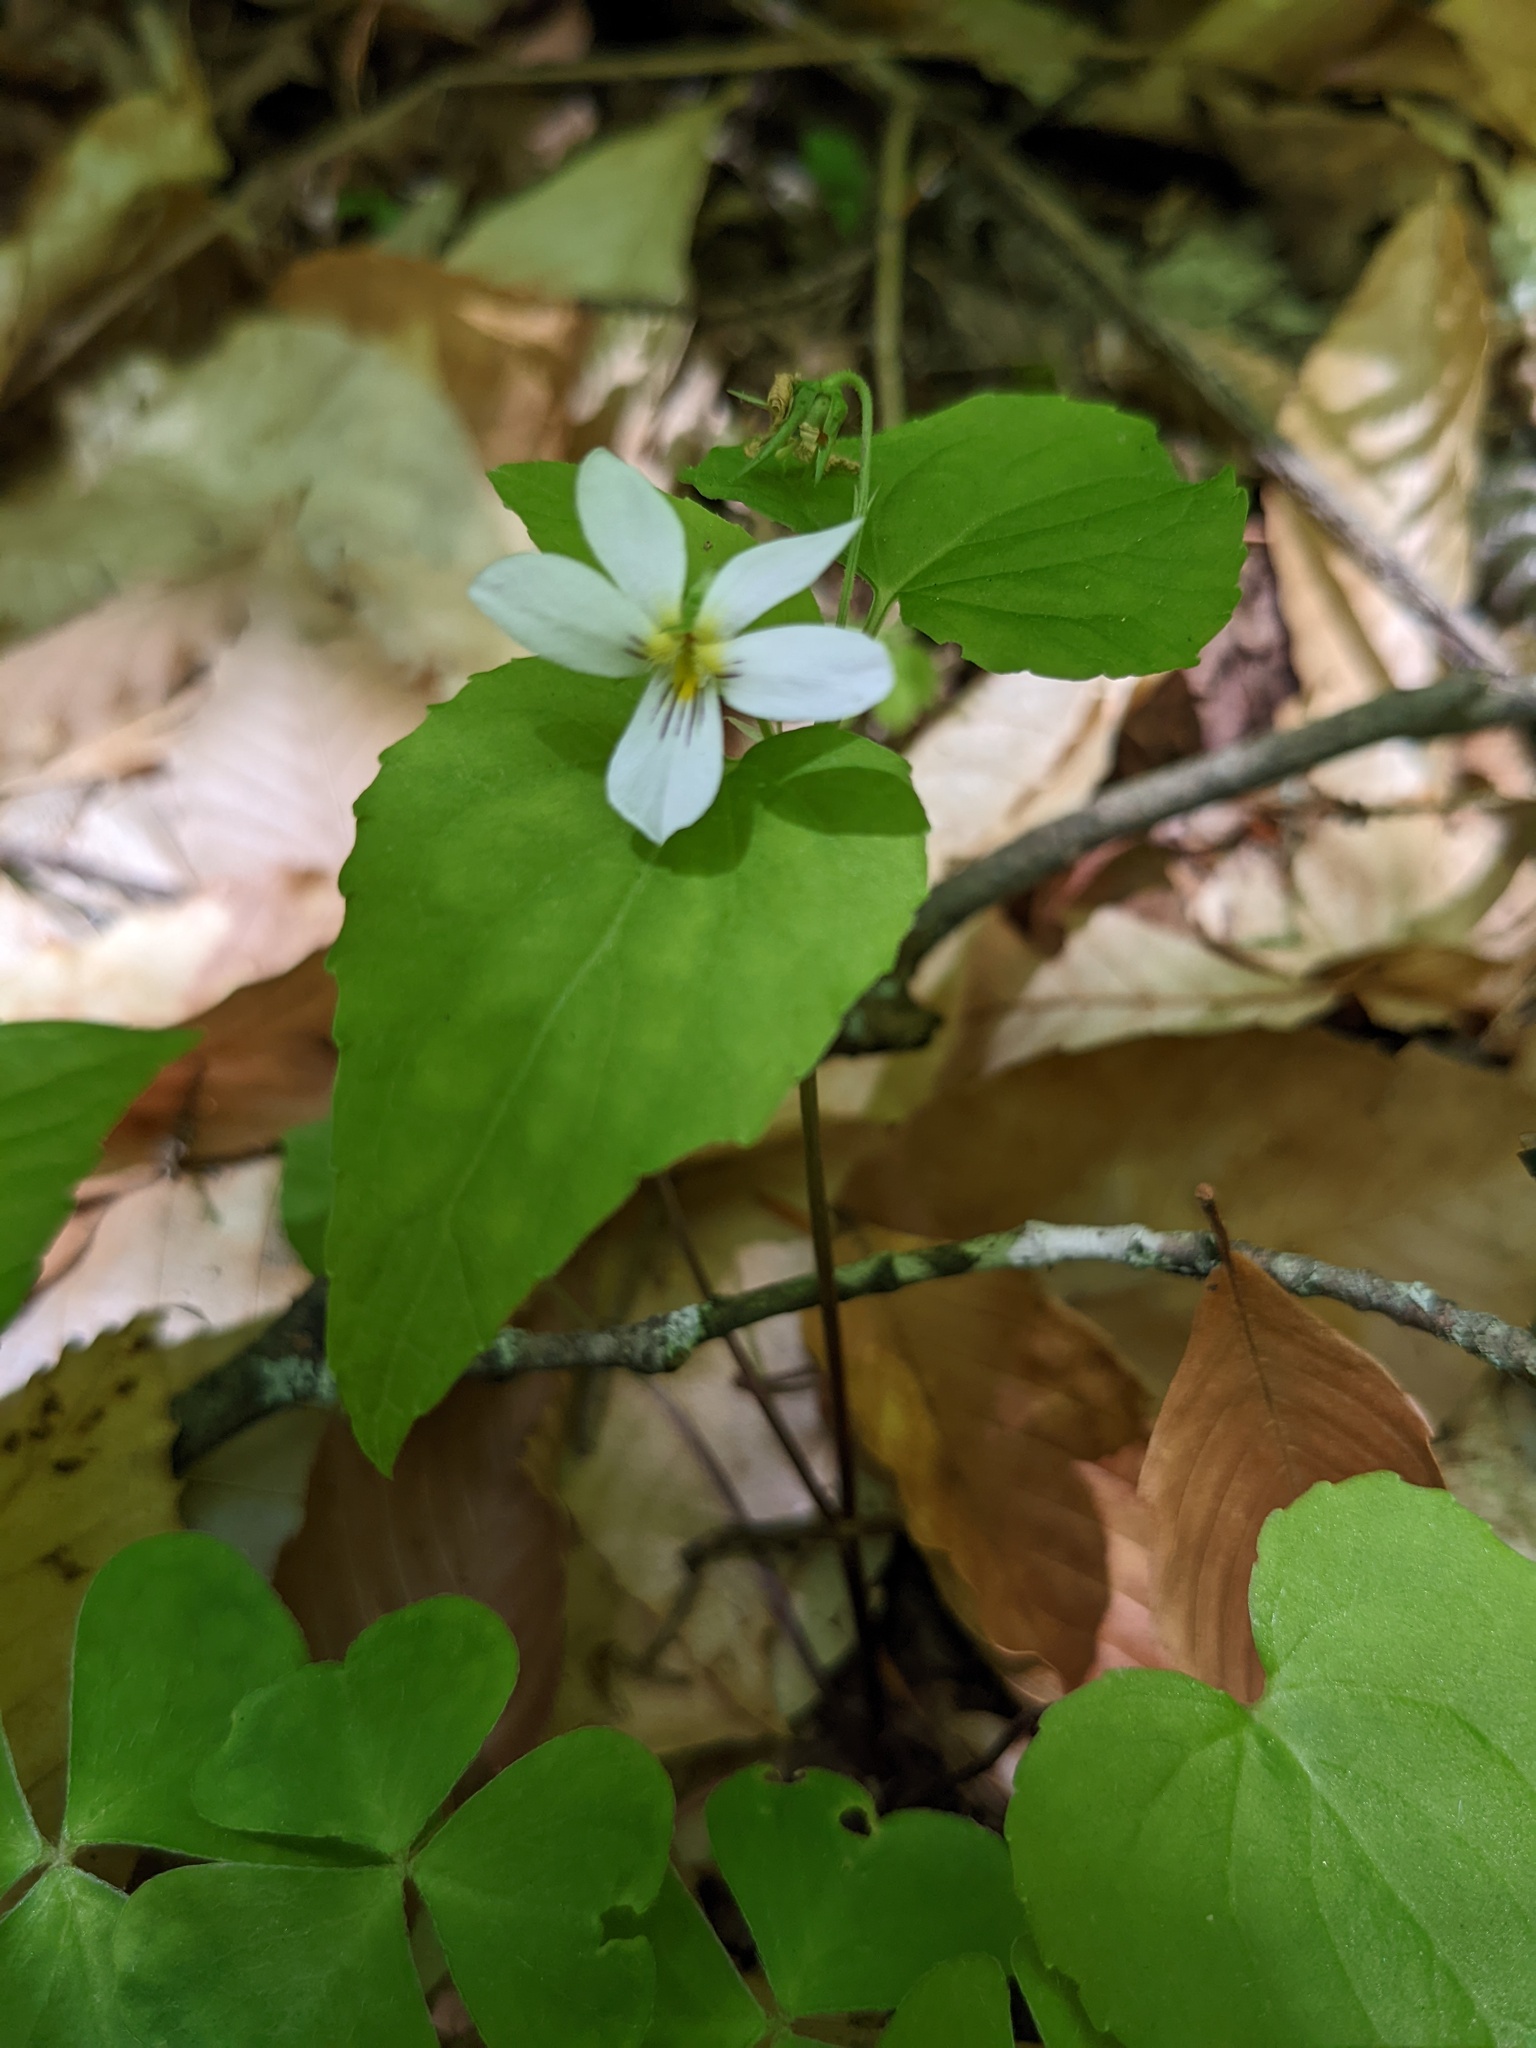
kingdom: Plantae
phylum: Tracheophyta
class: Magnoliopsida
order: Malpighiales
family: Violaceae
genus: Viola
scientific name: Viola canadensis
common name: Canada violet
